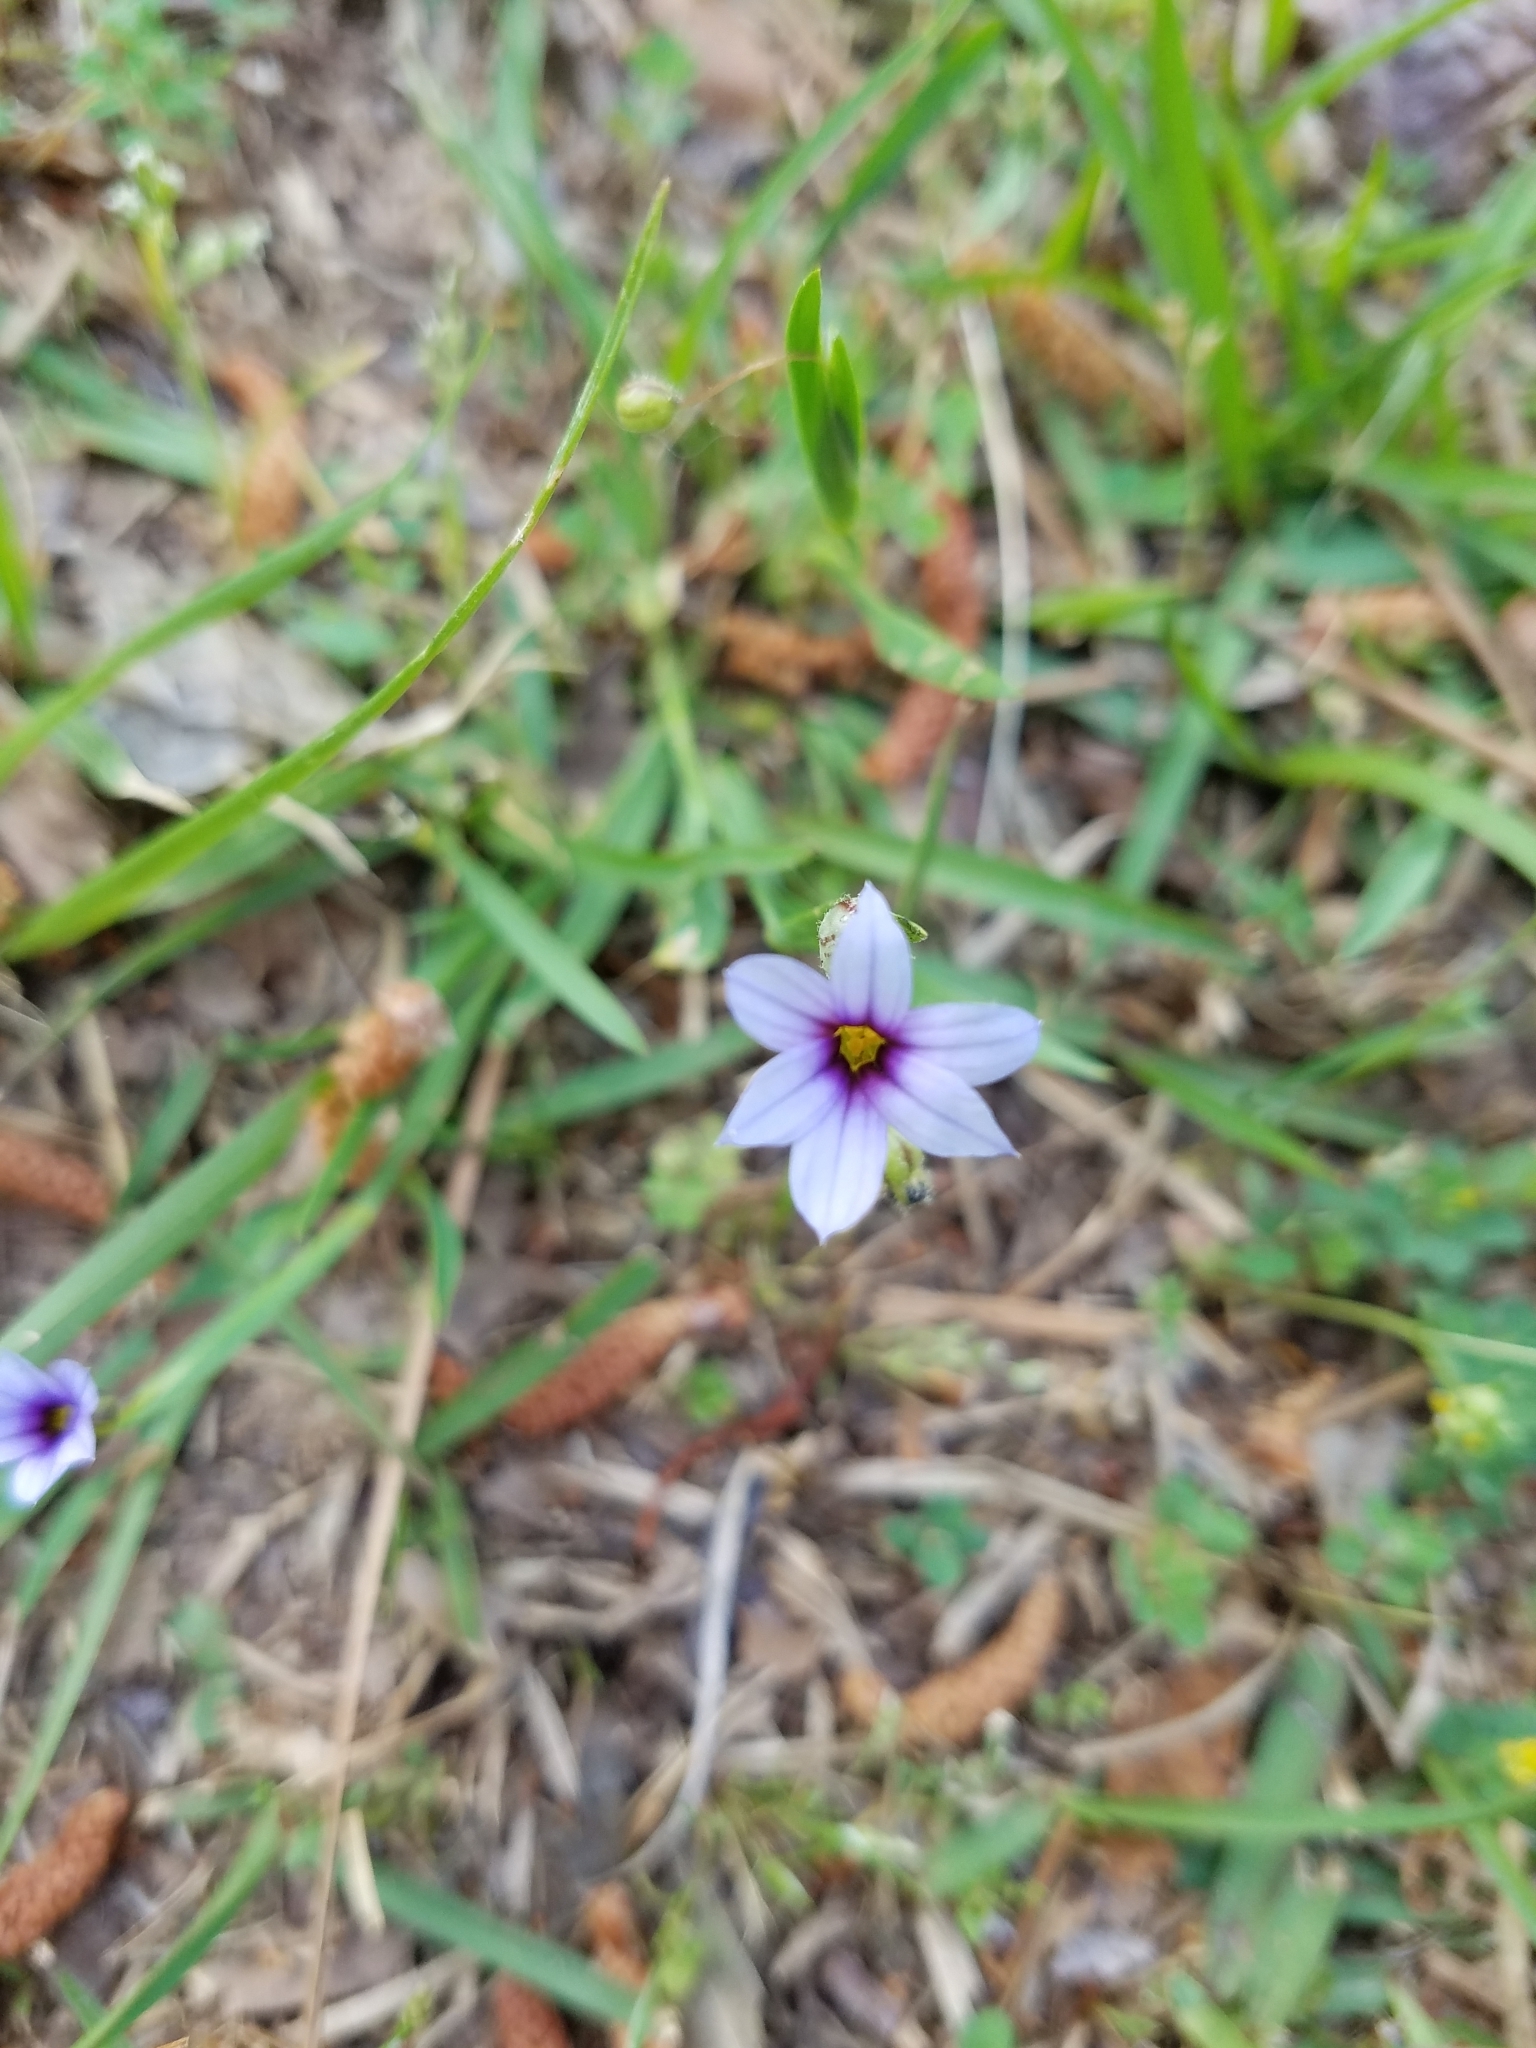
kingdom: Plantae
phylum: Tracheophyta
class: Liliopsida
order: Asparagales
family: Iridaceae
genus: Sisyrinchium
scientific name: Sisyrinchium micranthum
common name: Bermuda pigroot
